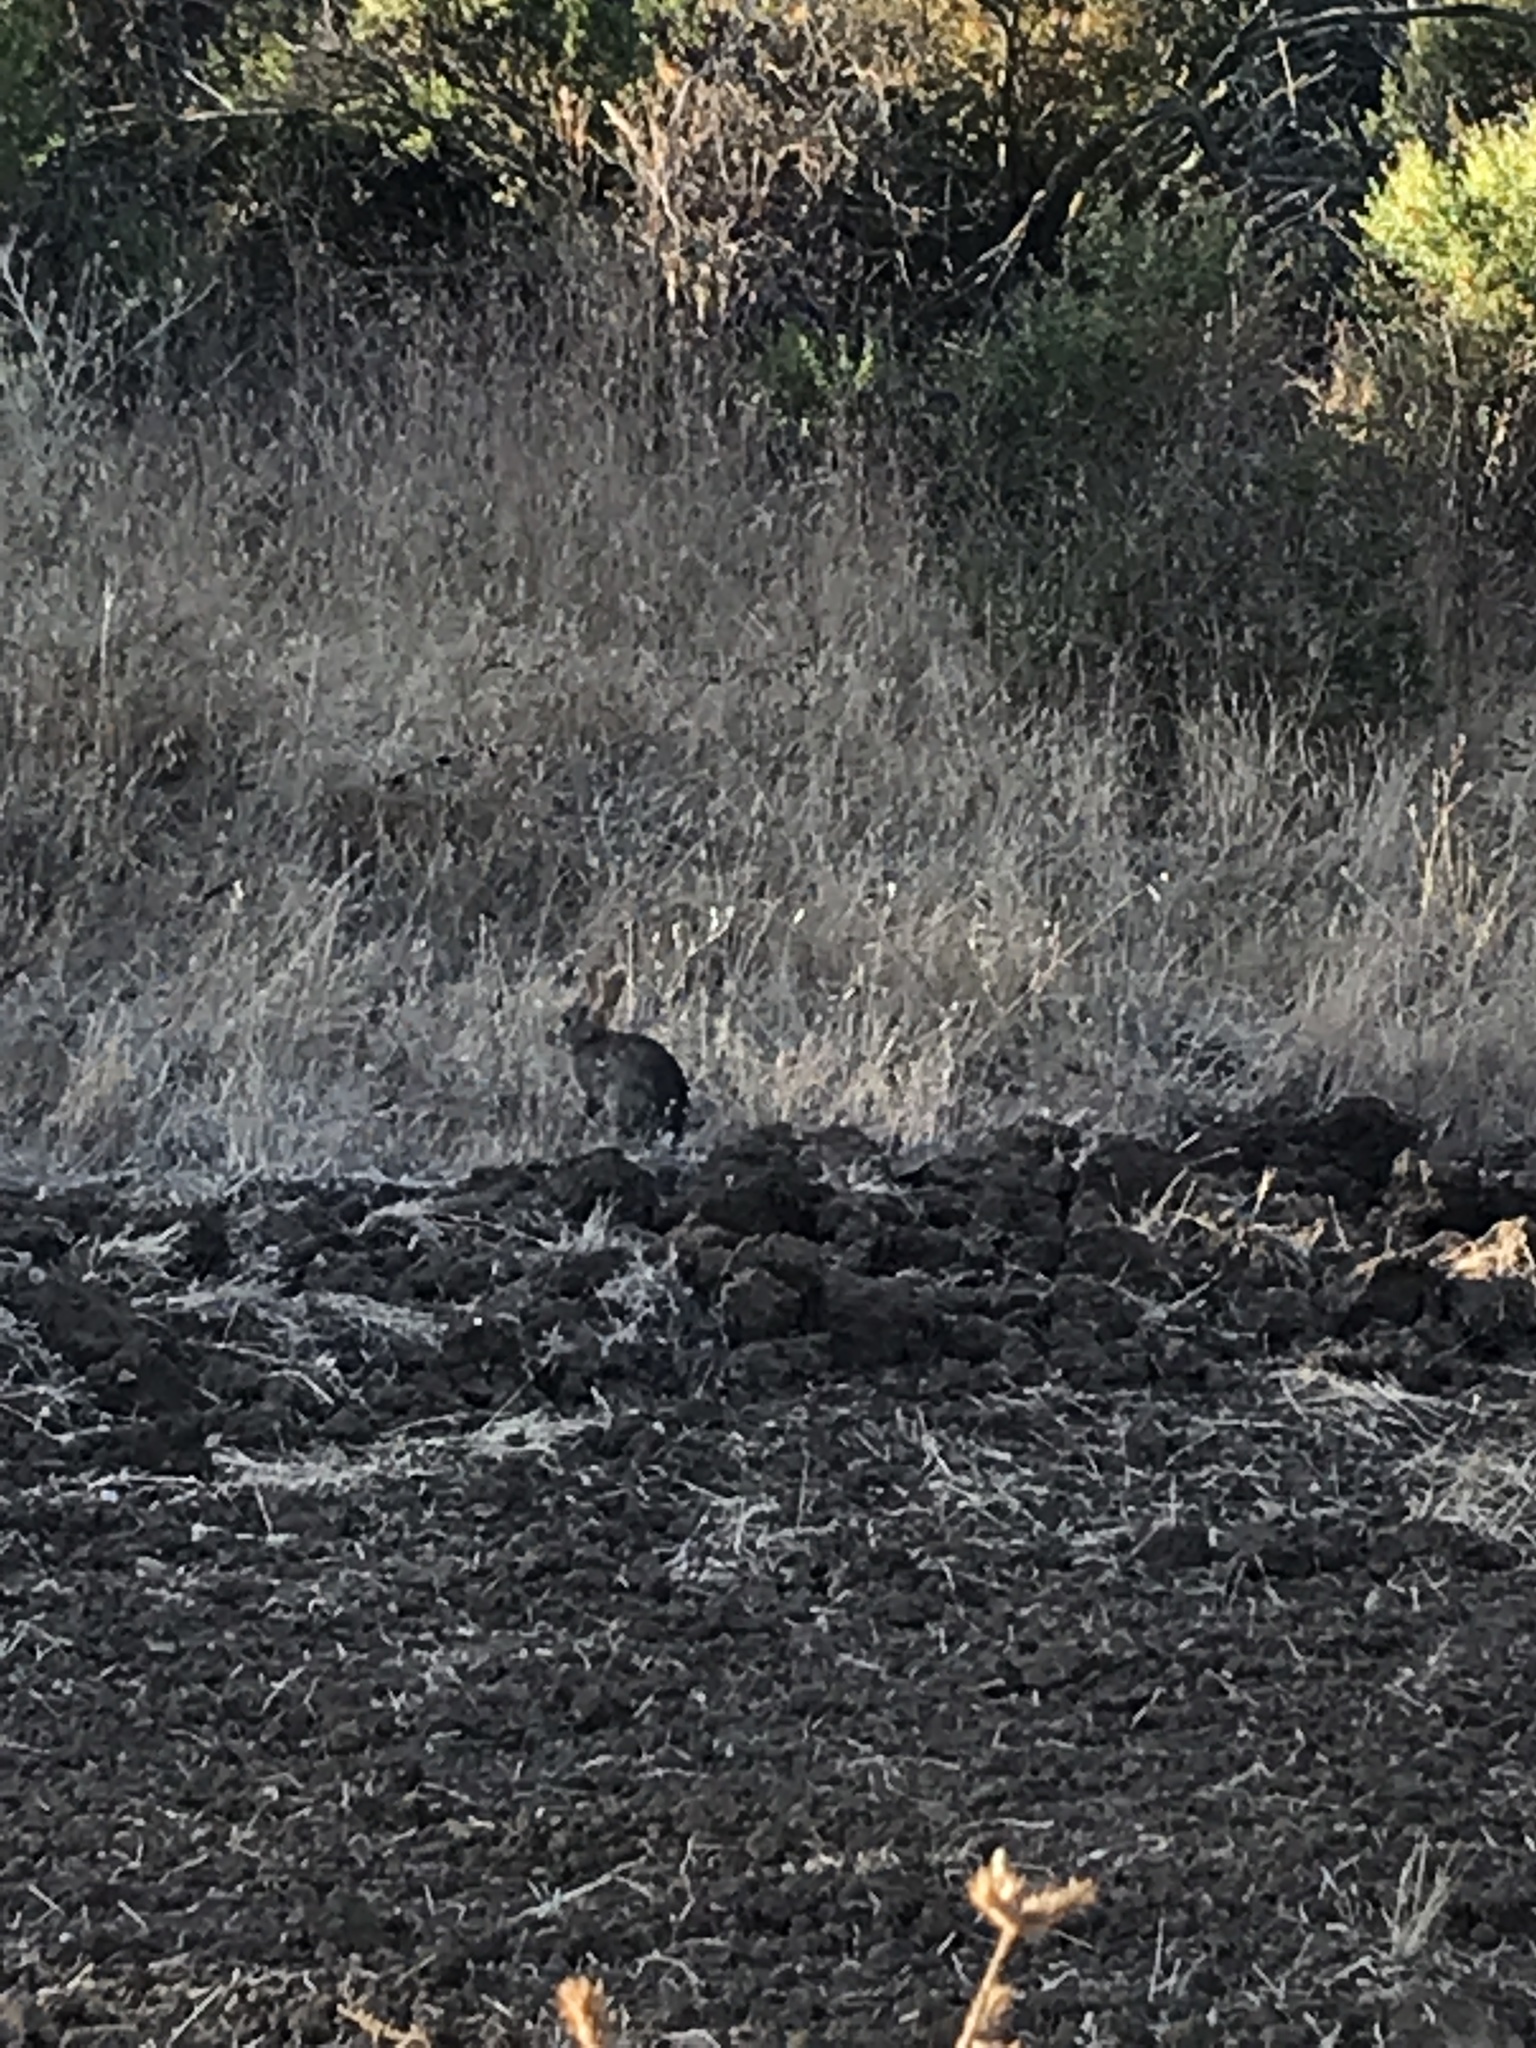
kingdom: Animalia
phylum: Chordata
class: Mammalia
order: Lagomorpha
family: Leporidae
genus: Sylvilagus
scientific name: Sylvilagus bachmani
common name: Brush rabbit
